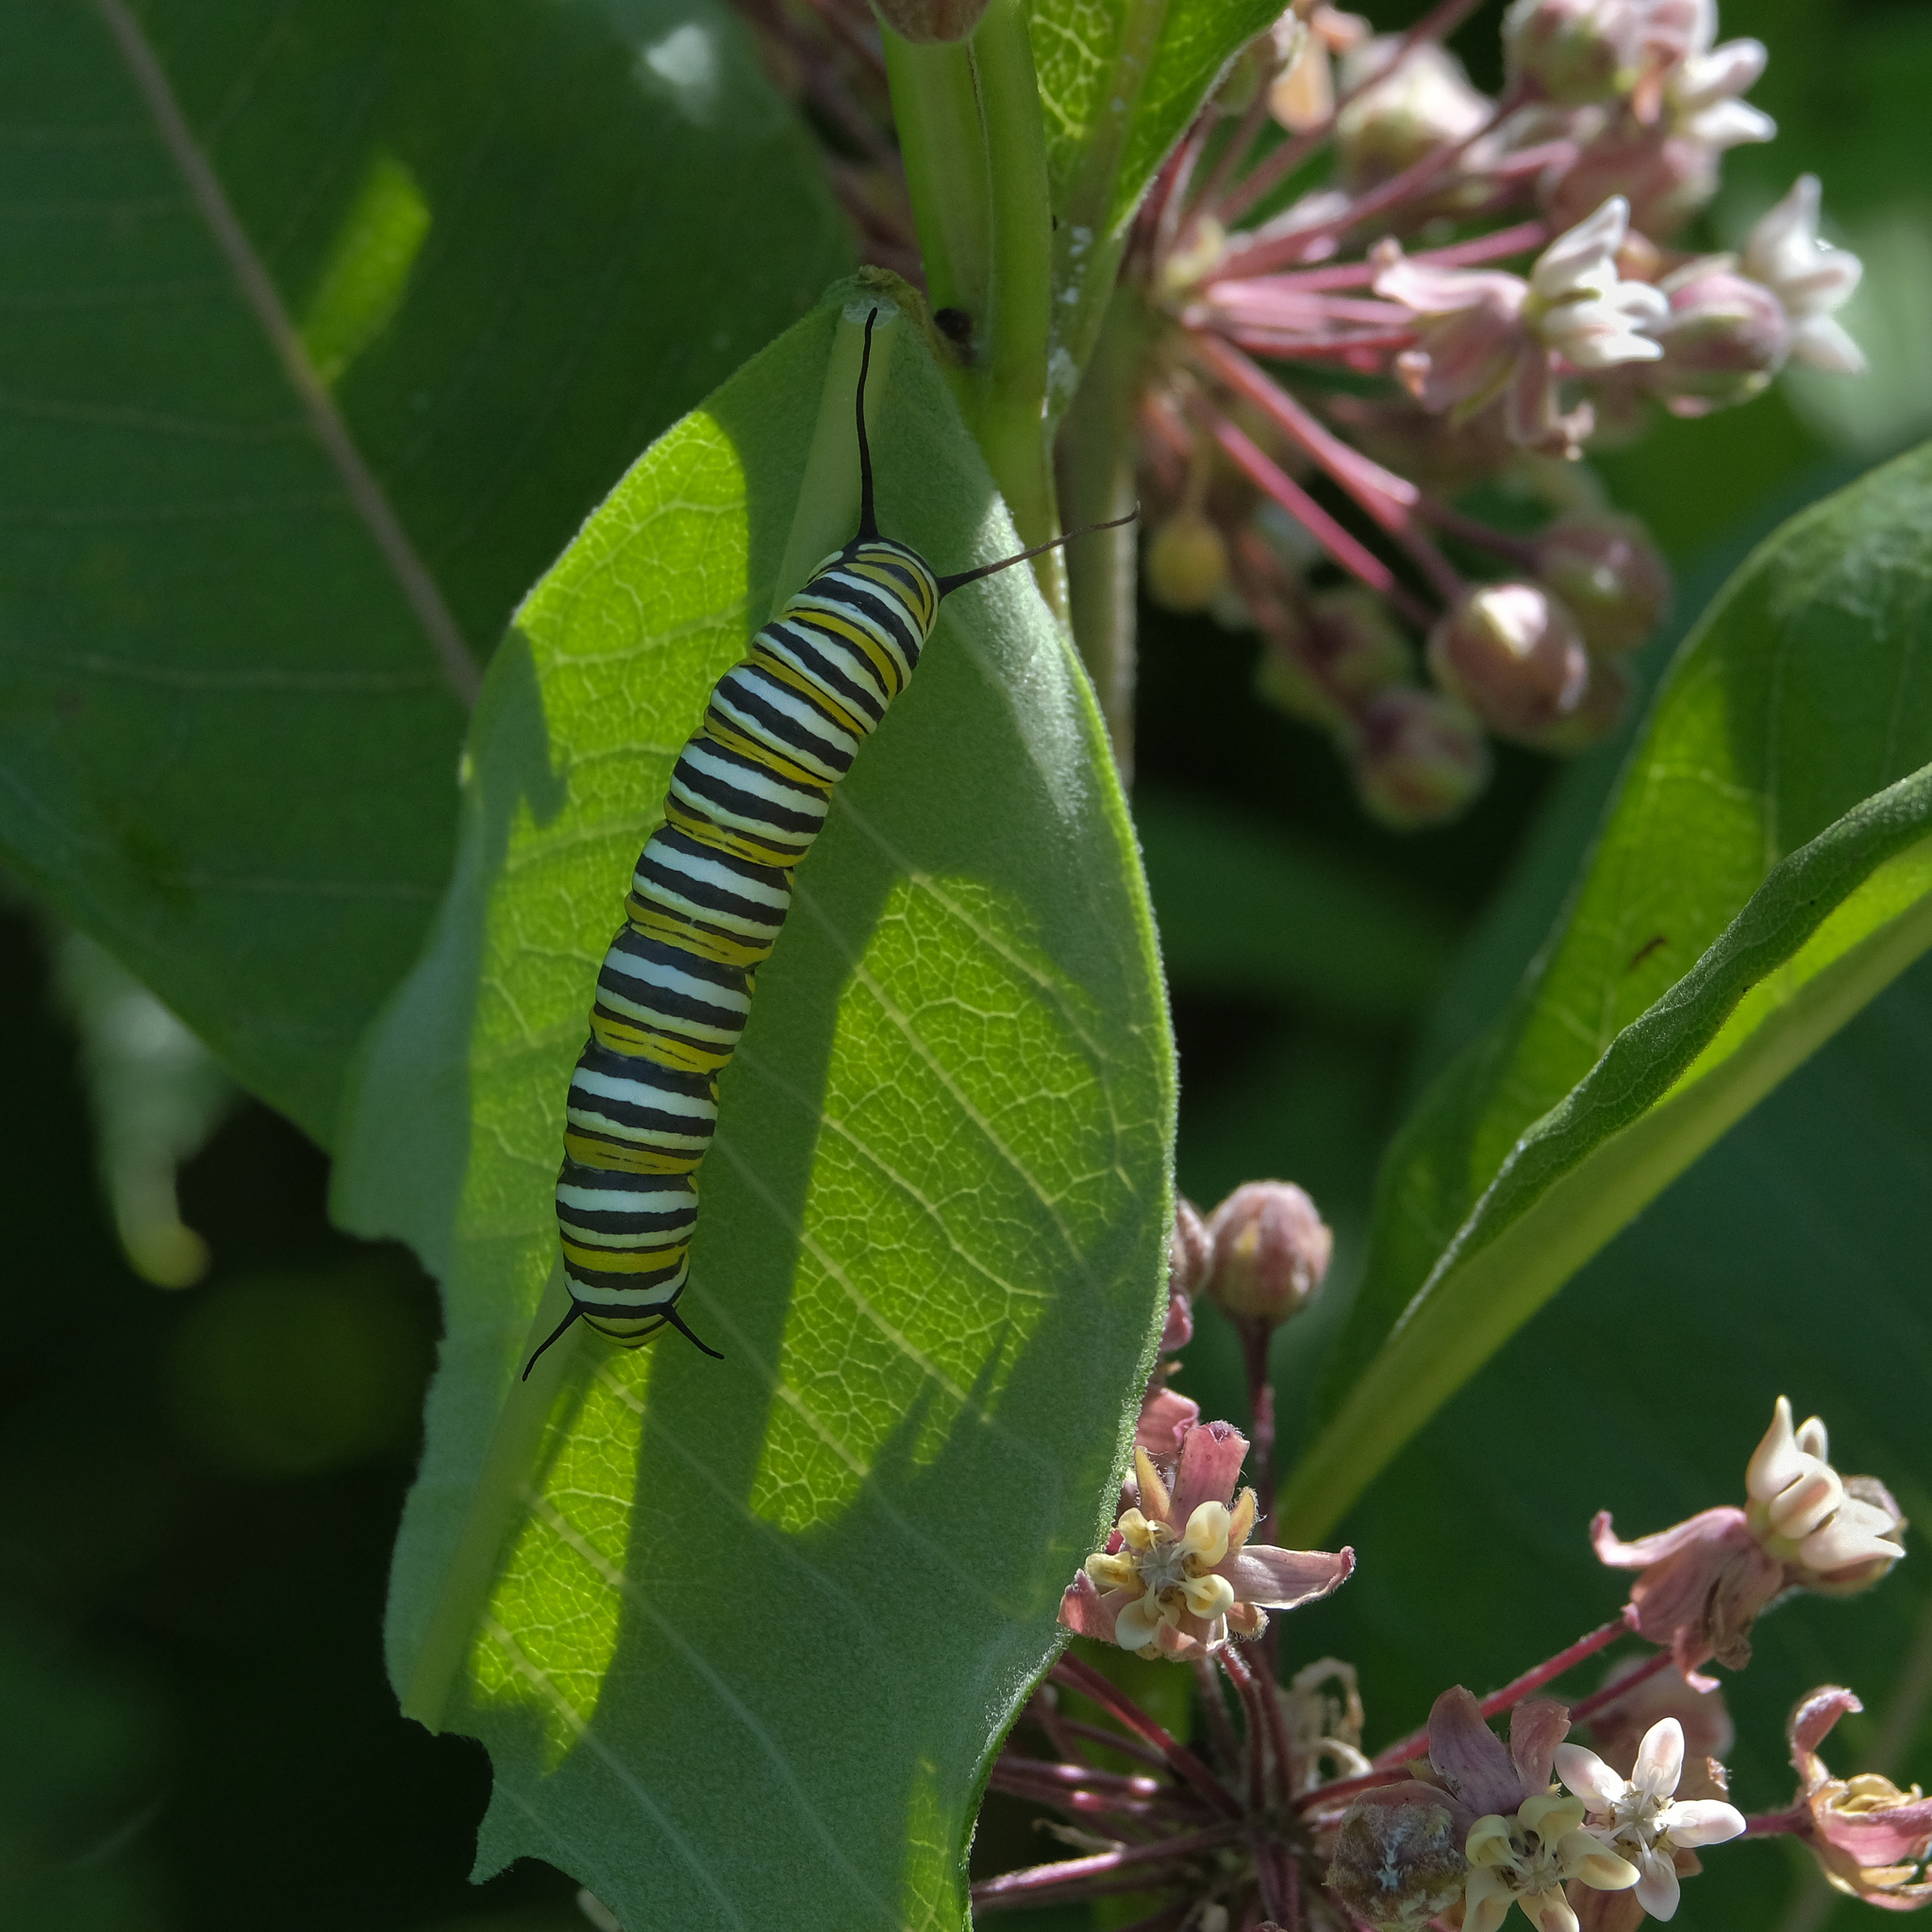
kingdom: Animalia
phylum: Arthropoda
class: Insecta
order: Lepidoptera
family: Nymphalidae
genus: Danaus
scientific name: Danaus plexippus
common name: Monarch
